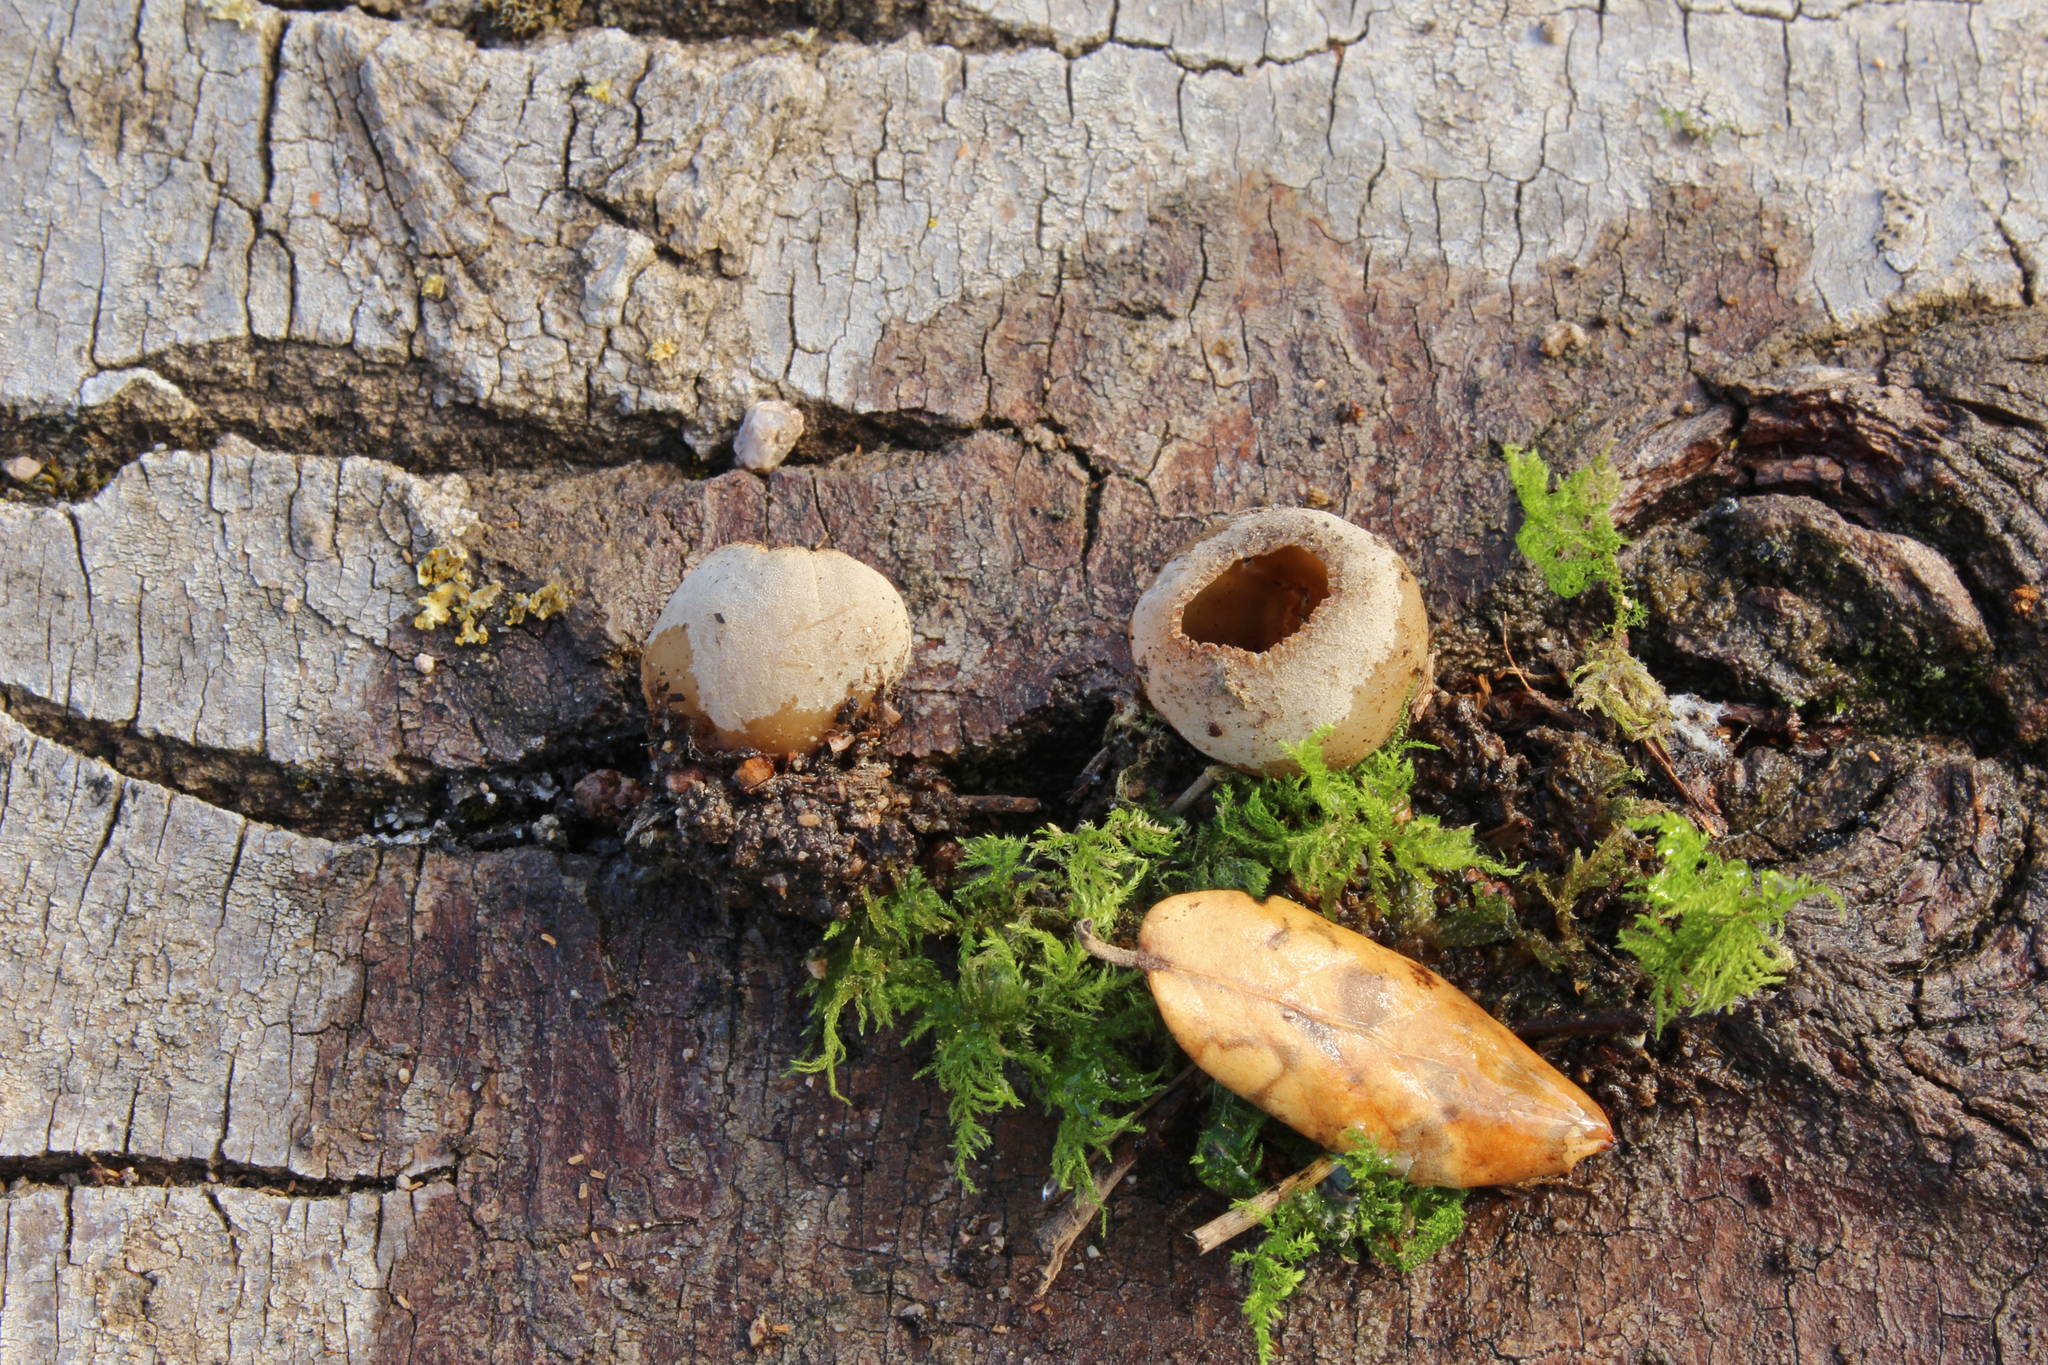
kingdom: Fungi
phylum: Ascomycota
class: Pezizomycetes
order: Pezizales
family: Tarzettaceae
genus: Tarzetta
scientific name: Tarzetta catinus
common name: Greater toothed cup
